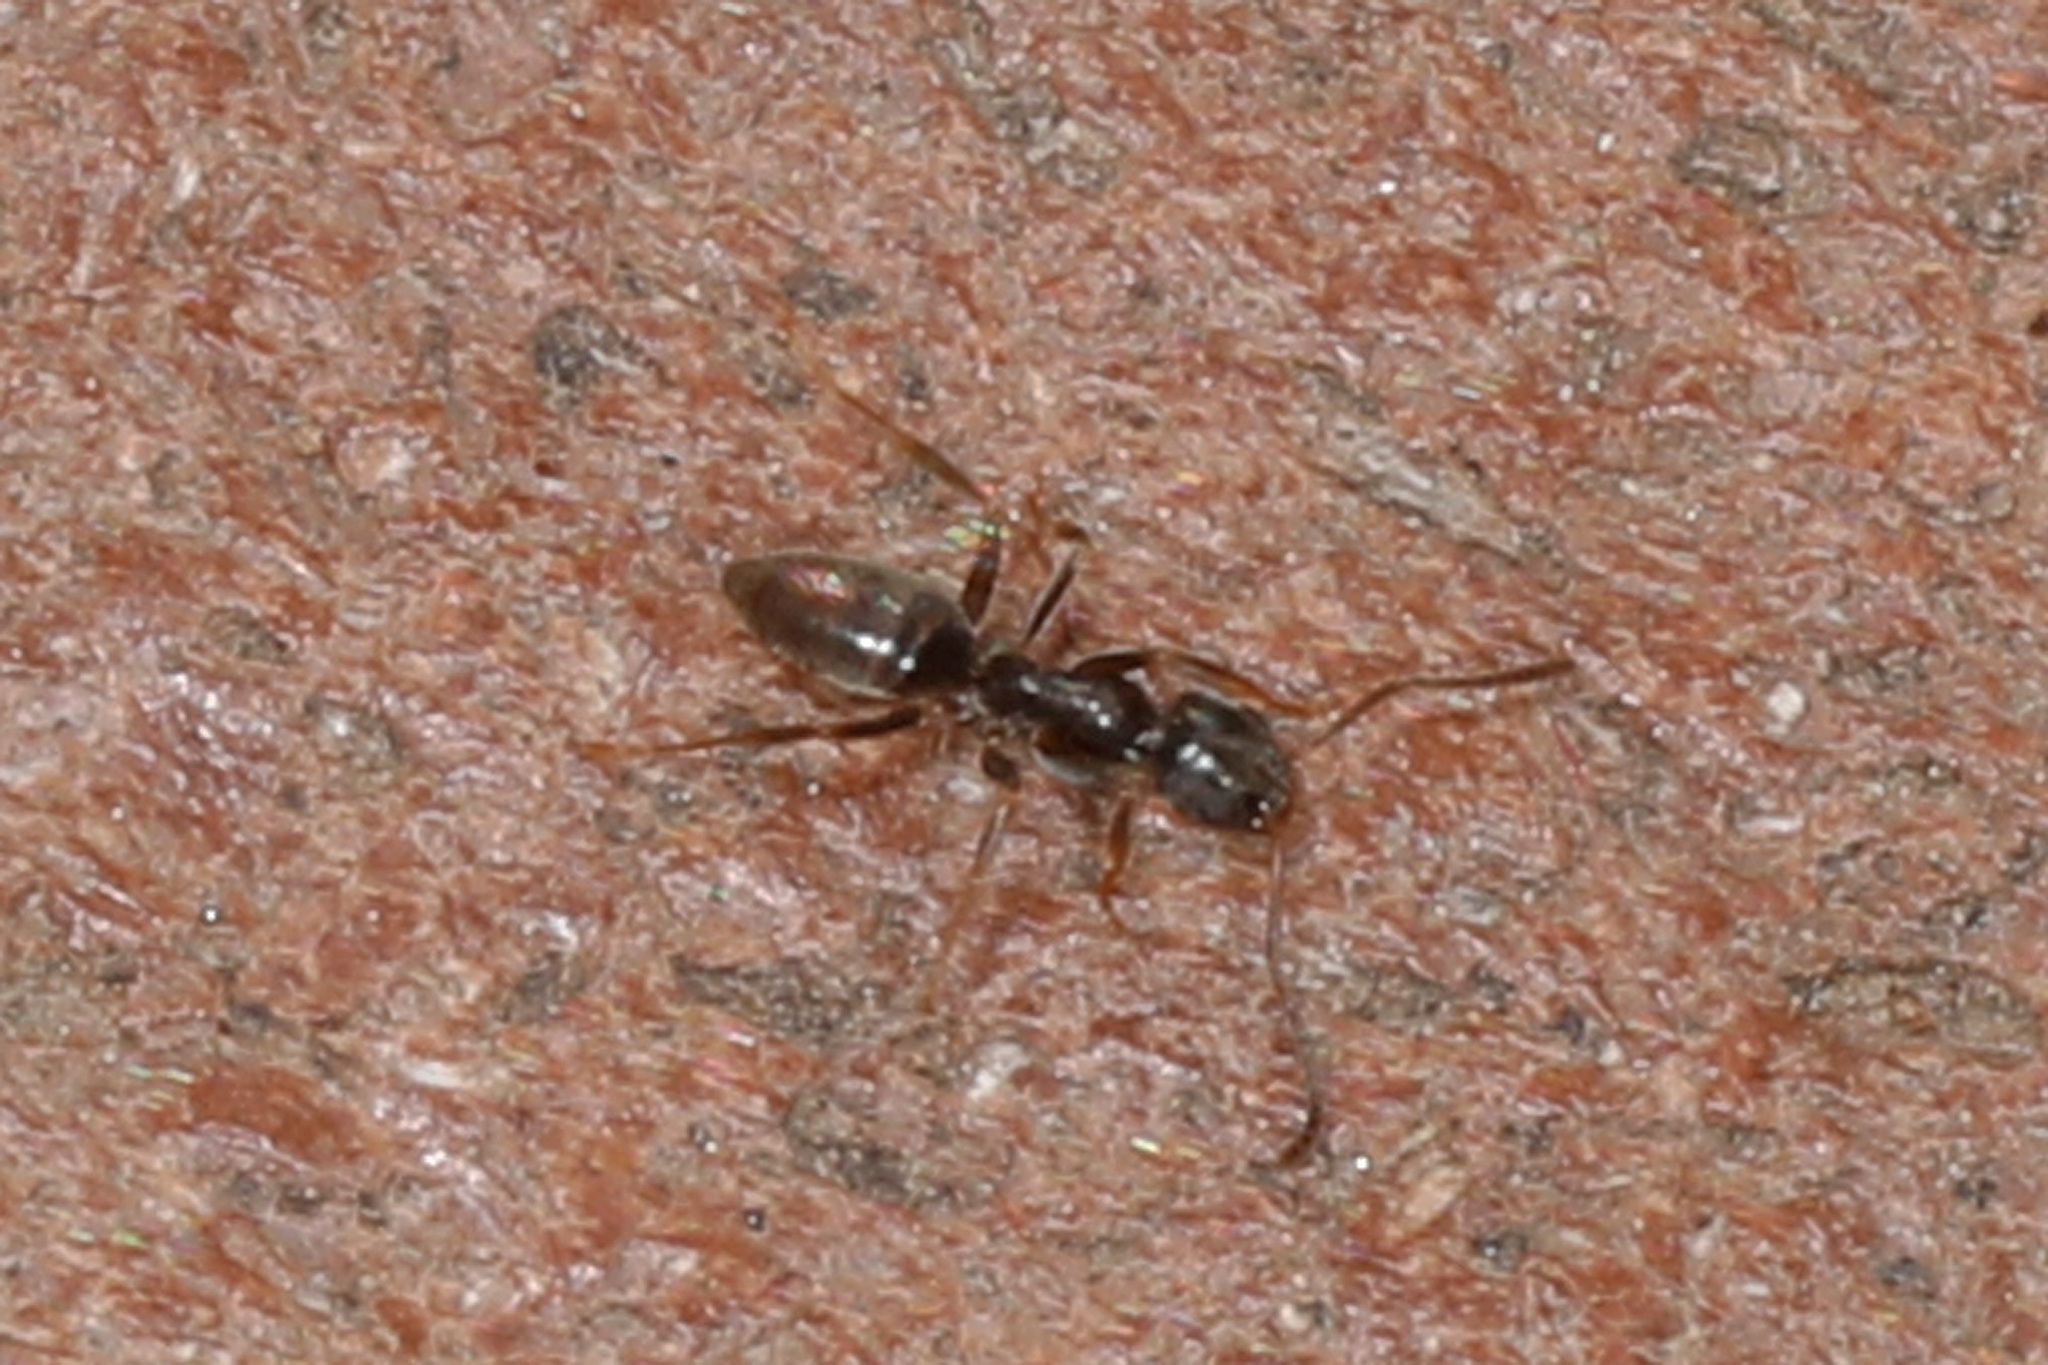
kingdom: Animalia
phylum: Arthropoda
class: Insecta
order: Hymenoptera
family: Formicidae
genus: Tapinoma
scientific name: Tapinoma sessile
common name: Odorous house ant
